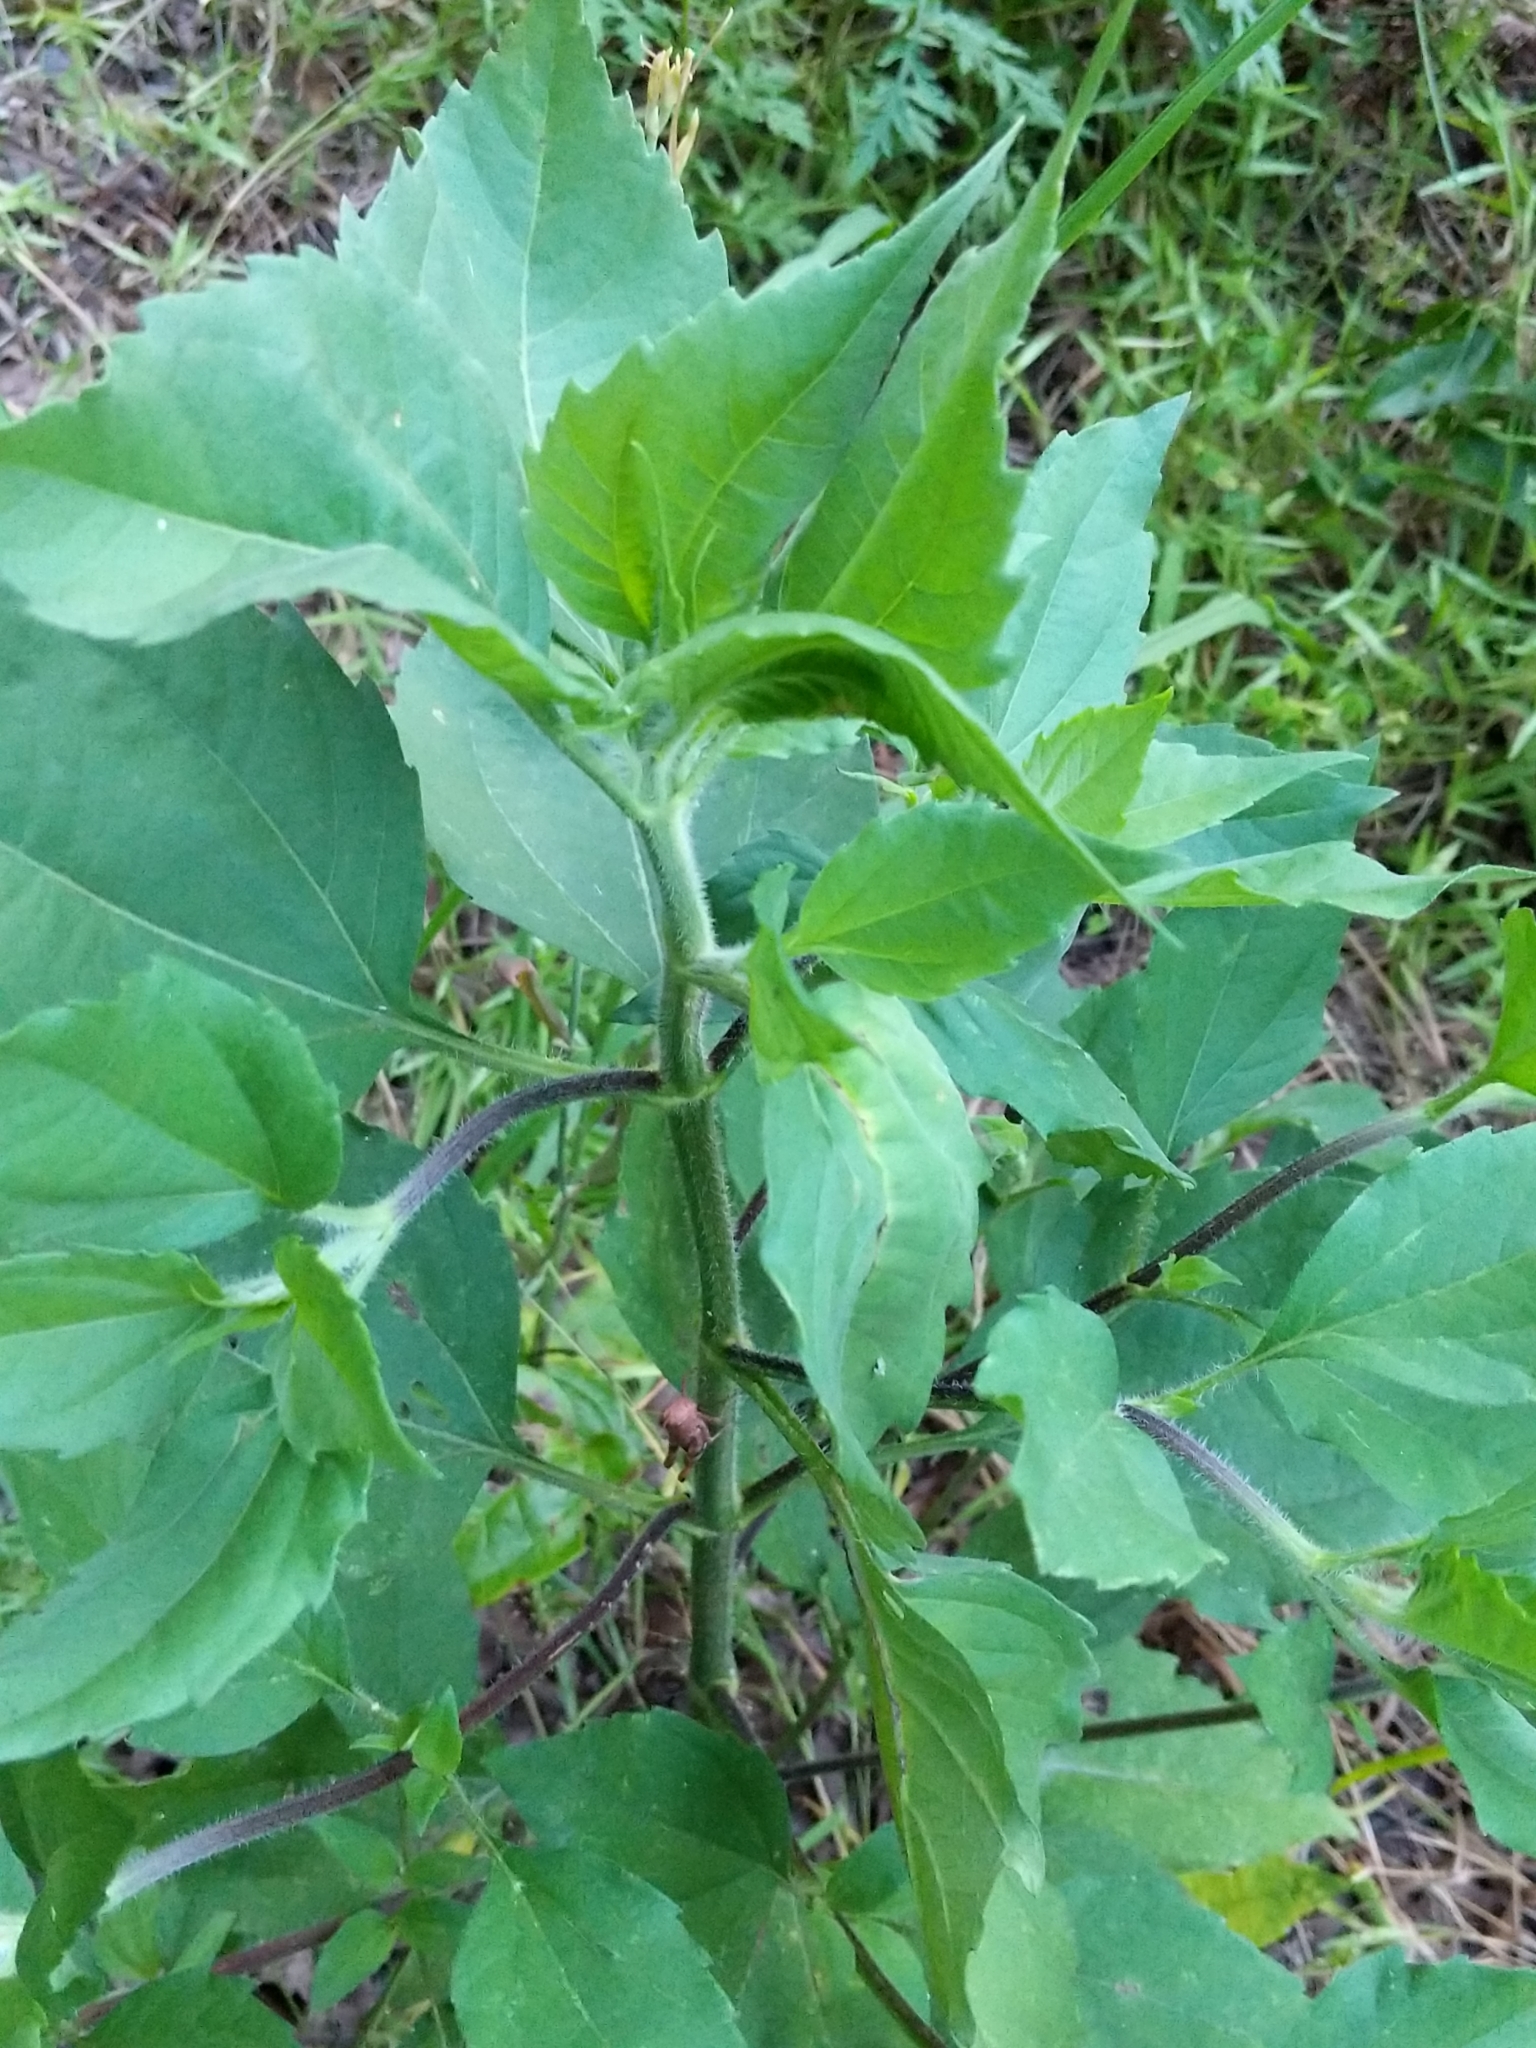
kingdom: Plantae
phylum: Tracheophyta
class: Magnoliopsida
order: Asterales
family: Asteraceae
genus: Iva
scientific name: Iva annua
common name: Marsh-elder
